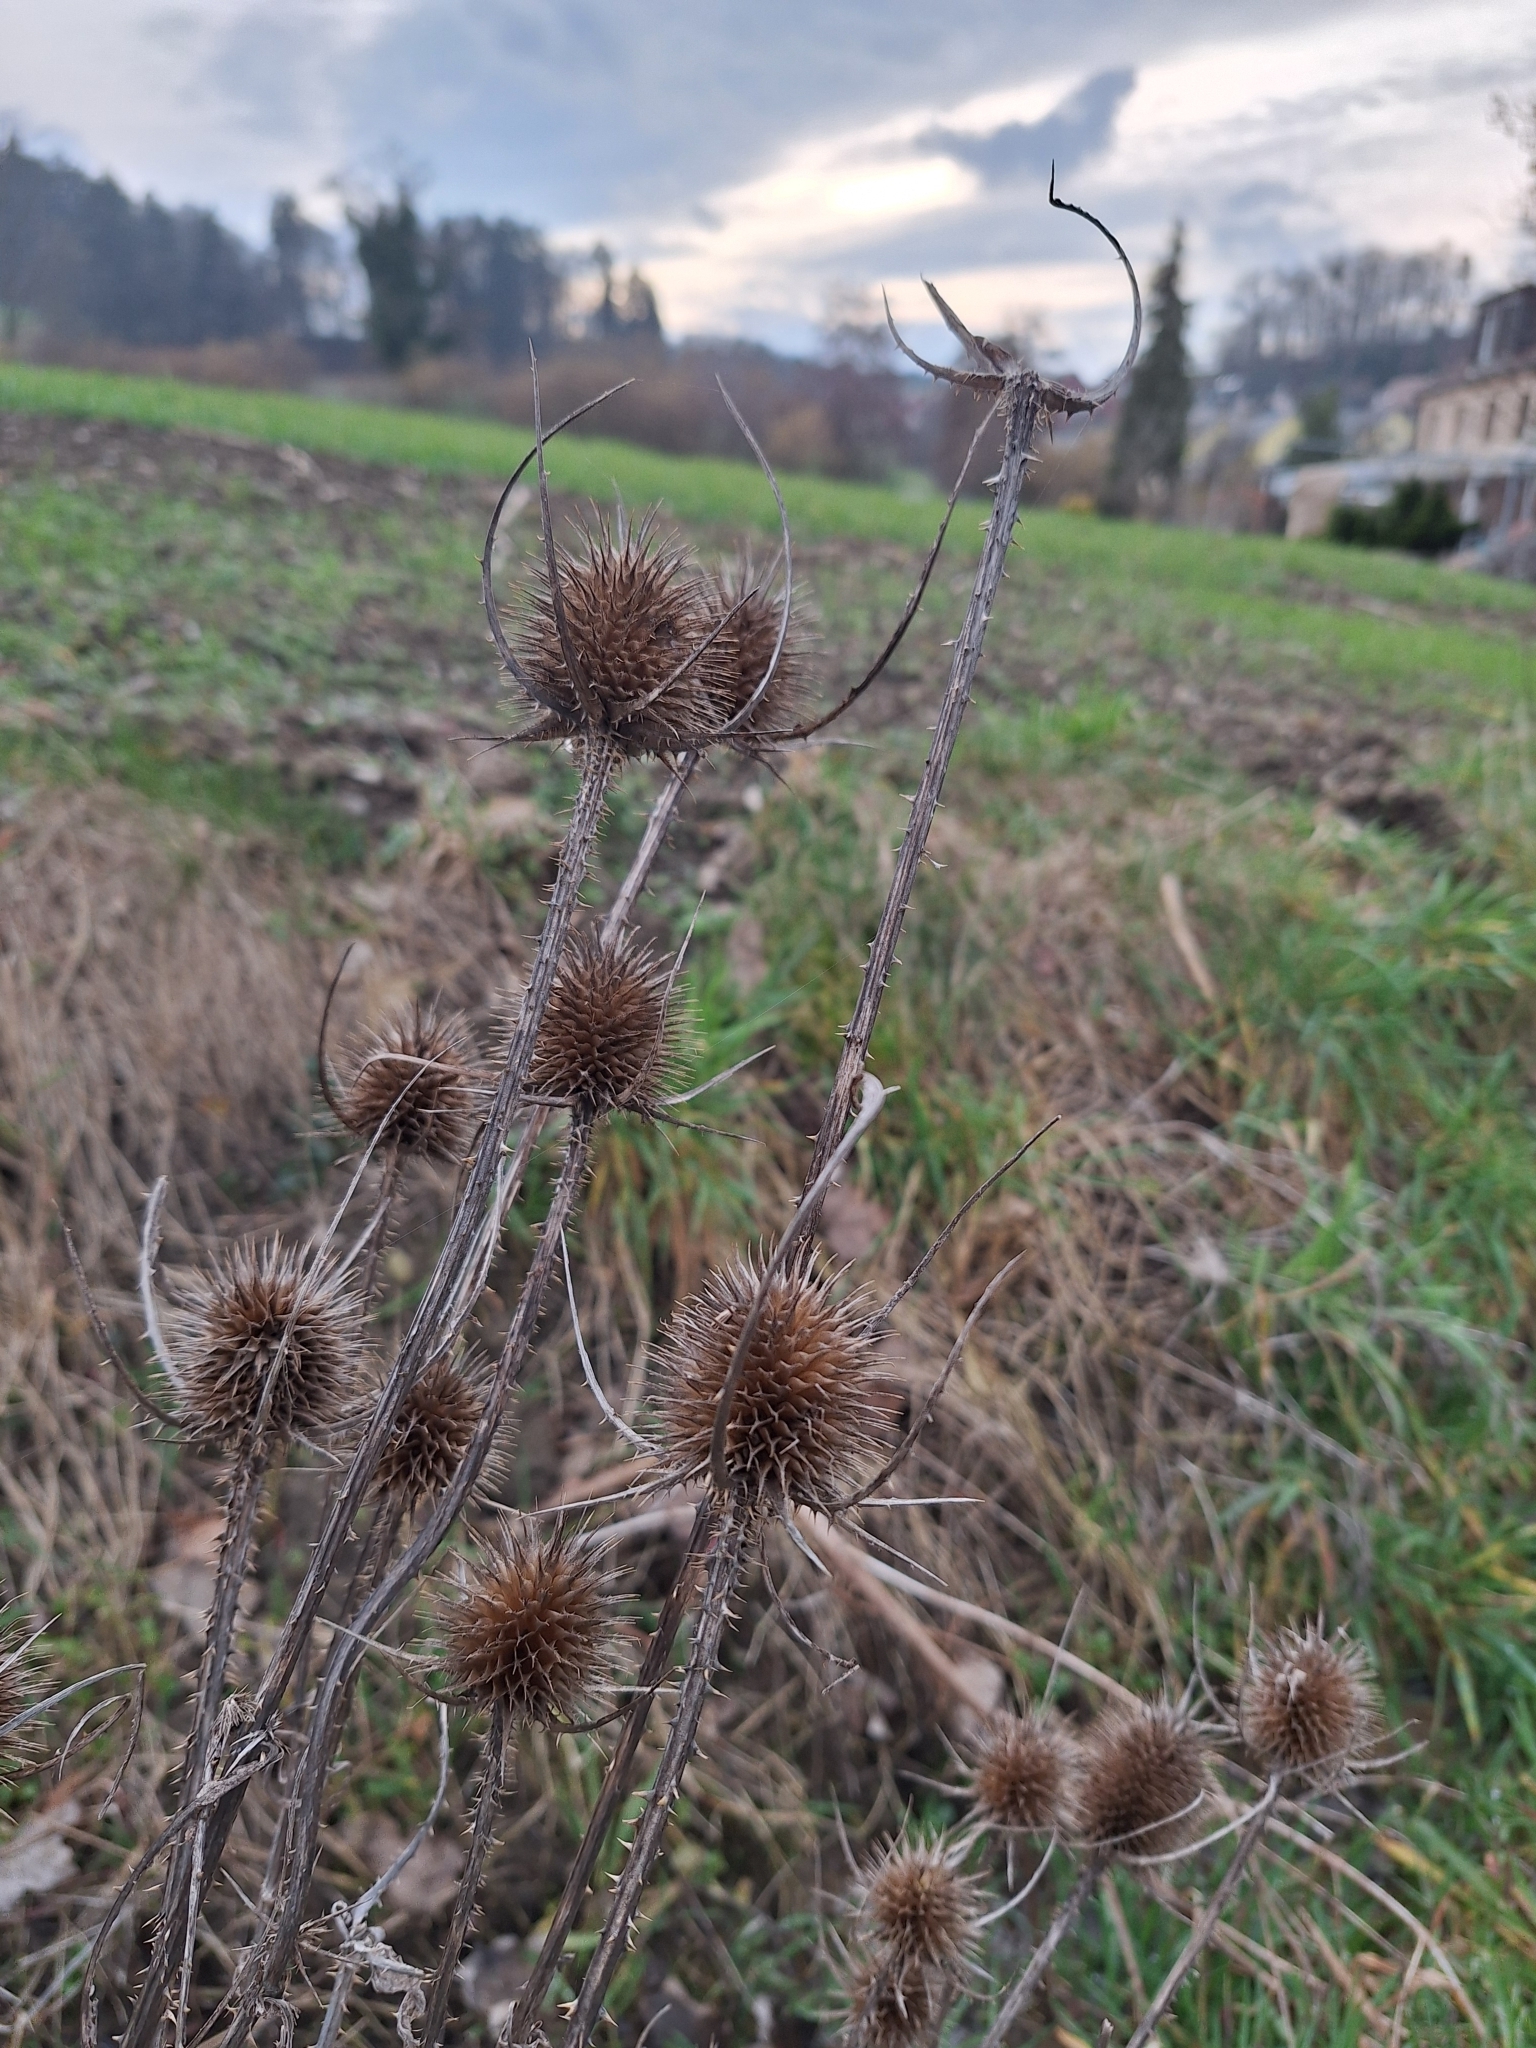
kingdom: Plantae
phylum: Tracheophyta
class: Magnoliopsida
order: Dipsacales
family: Caprifoliaceae
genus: Dipsacus
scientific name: Dipsacus fullonum
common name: Teasel
